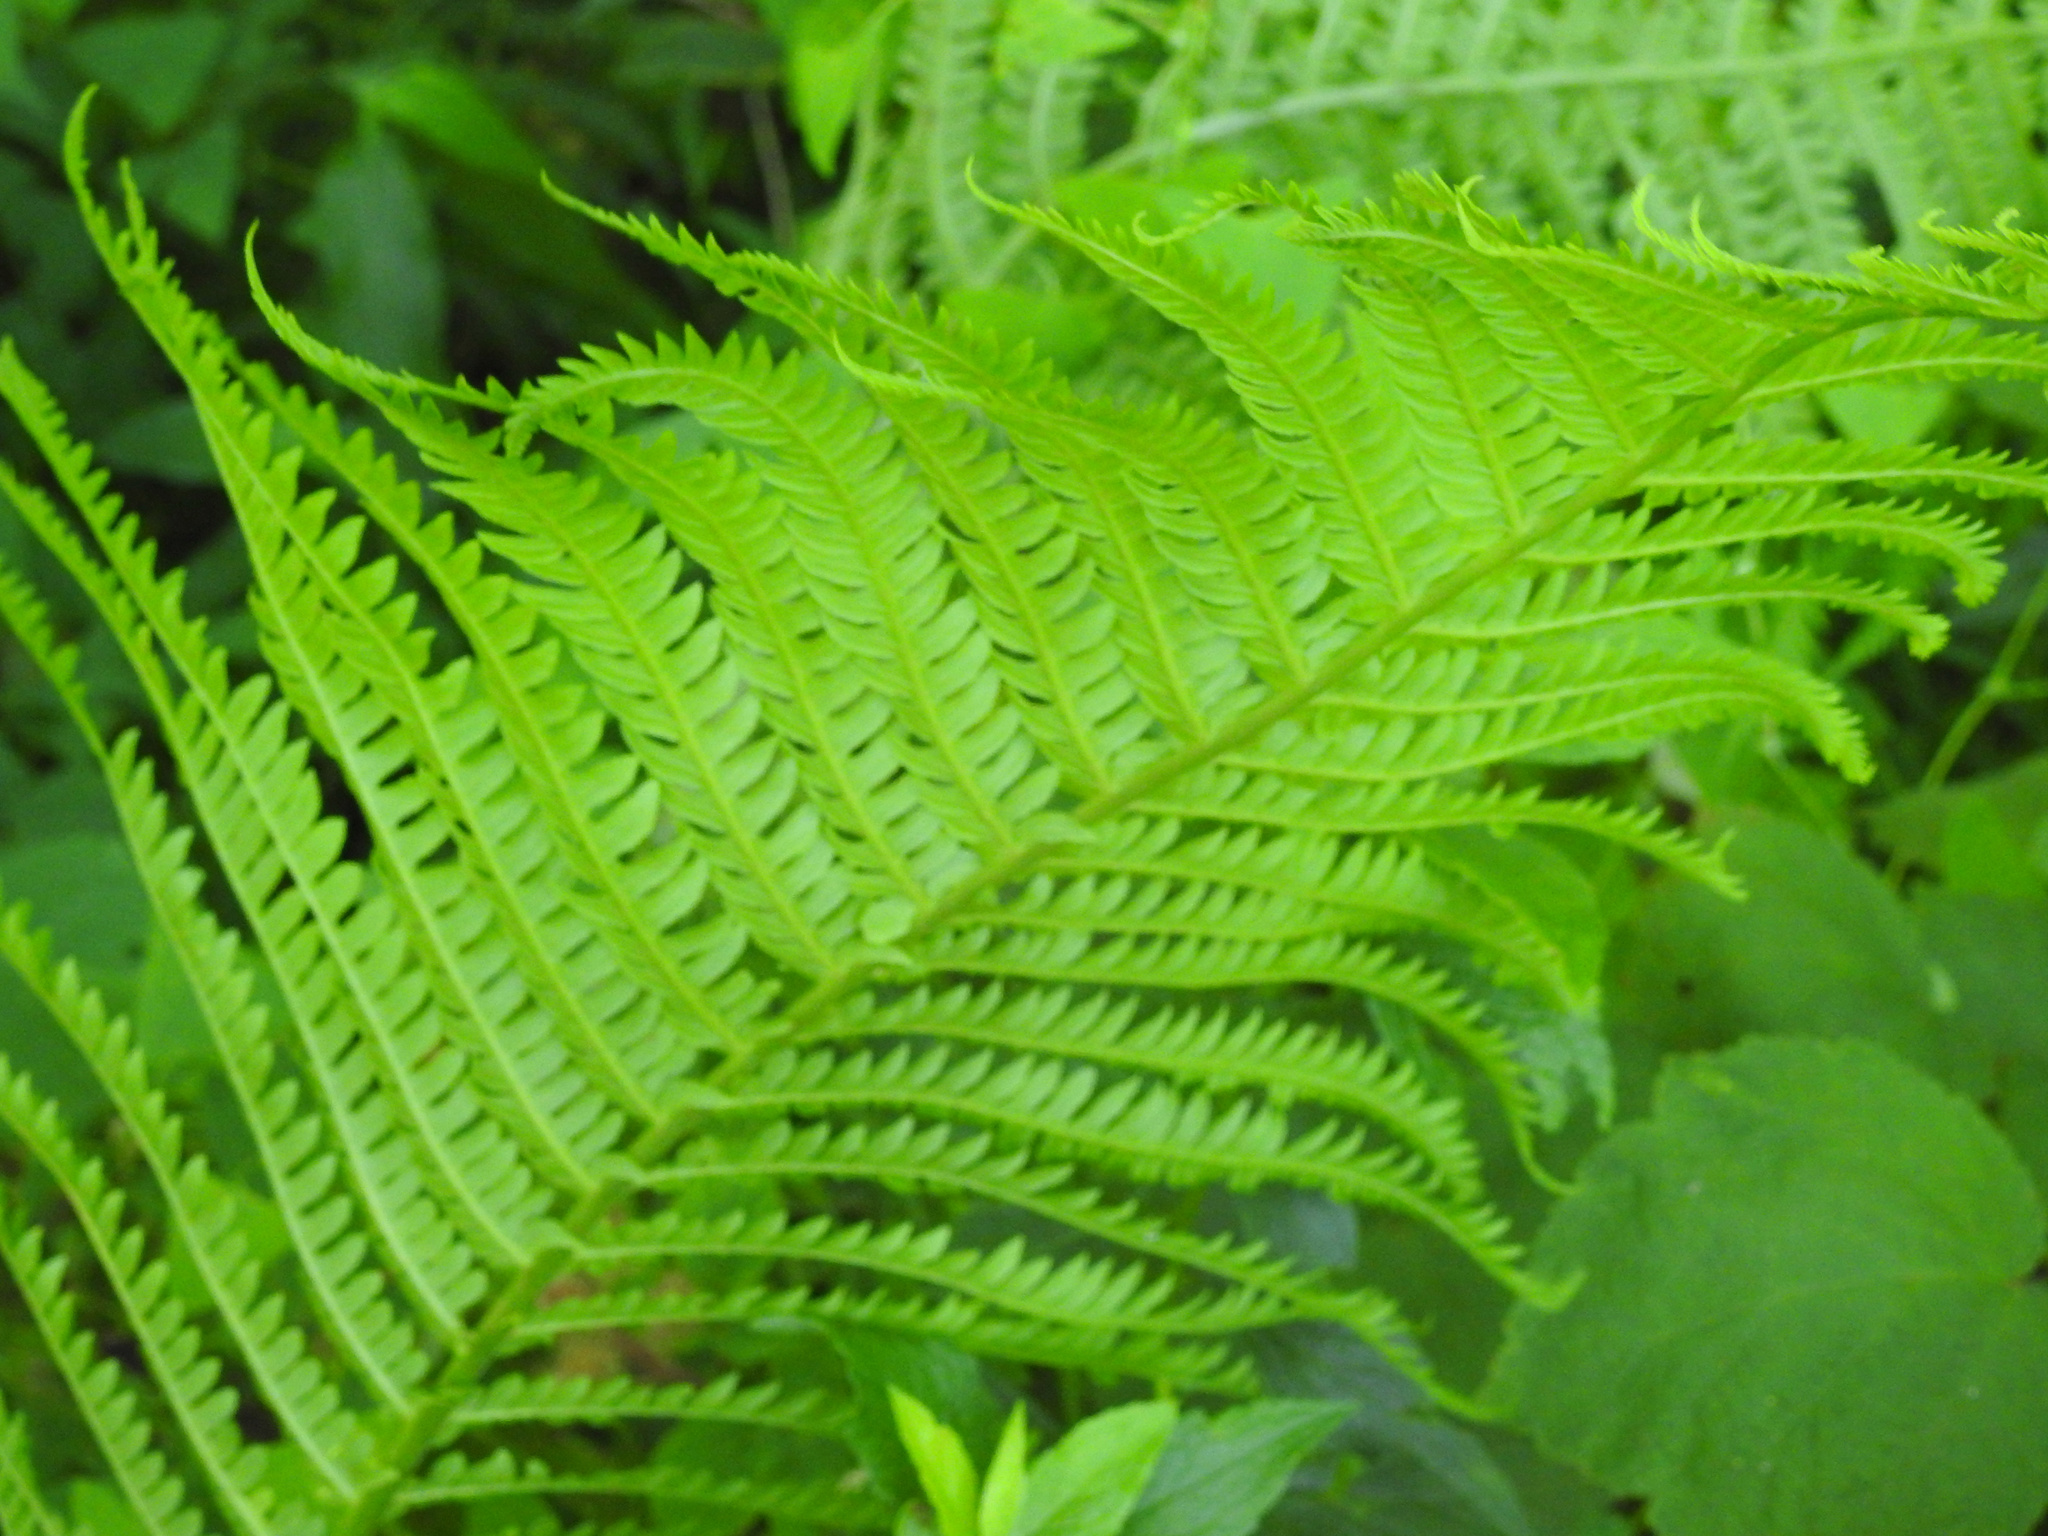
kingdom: Plantae
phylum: Tracheophyta
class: Polypodiopsida
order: Polypodiales
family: Onocleaceae
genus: Matteuccia
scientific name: Matteuccia struthiopteris
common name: Ostrich fern
